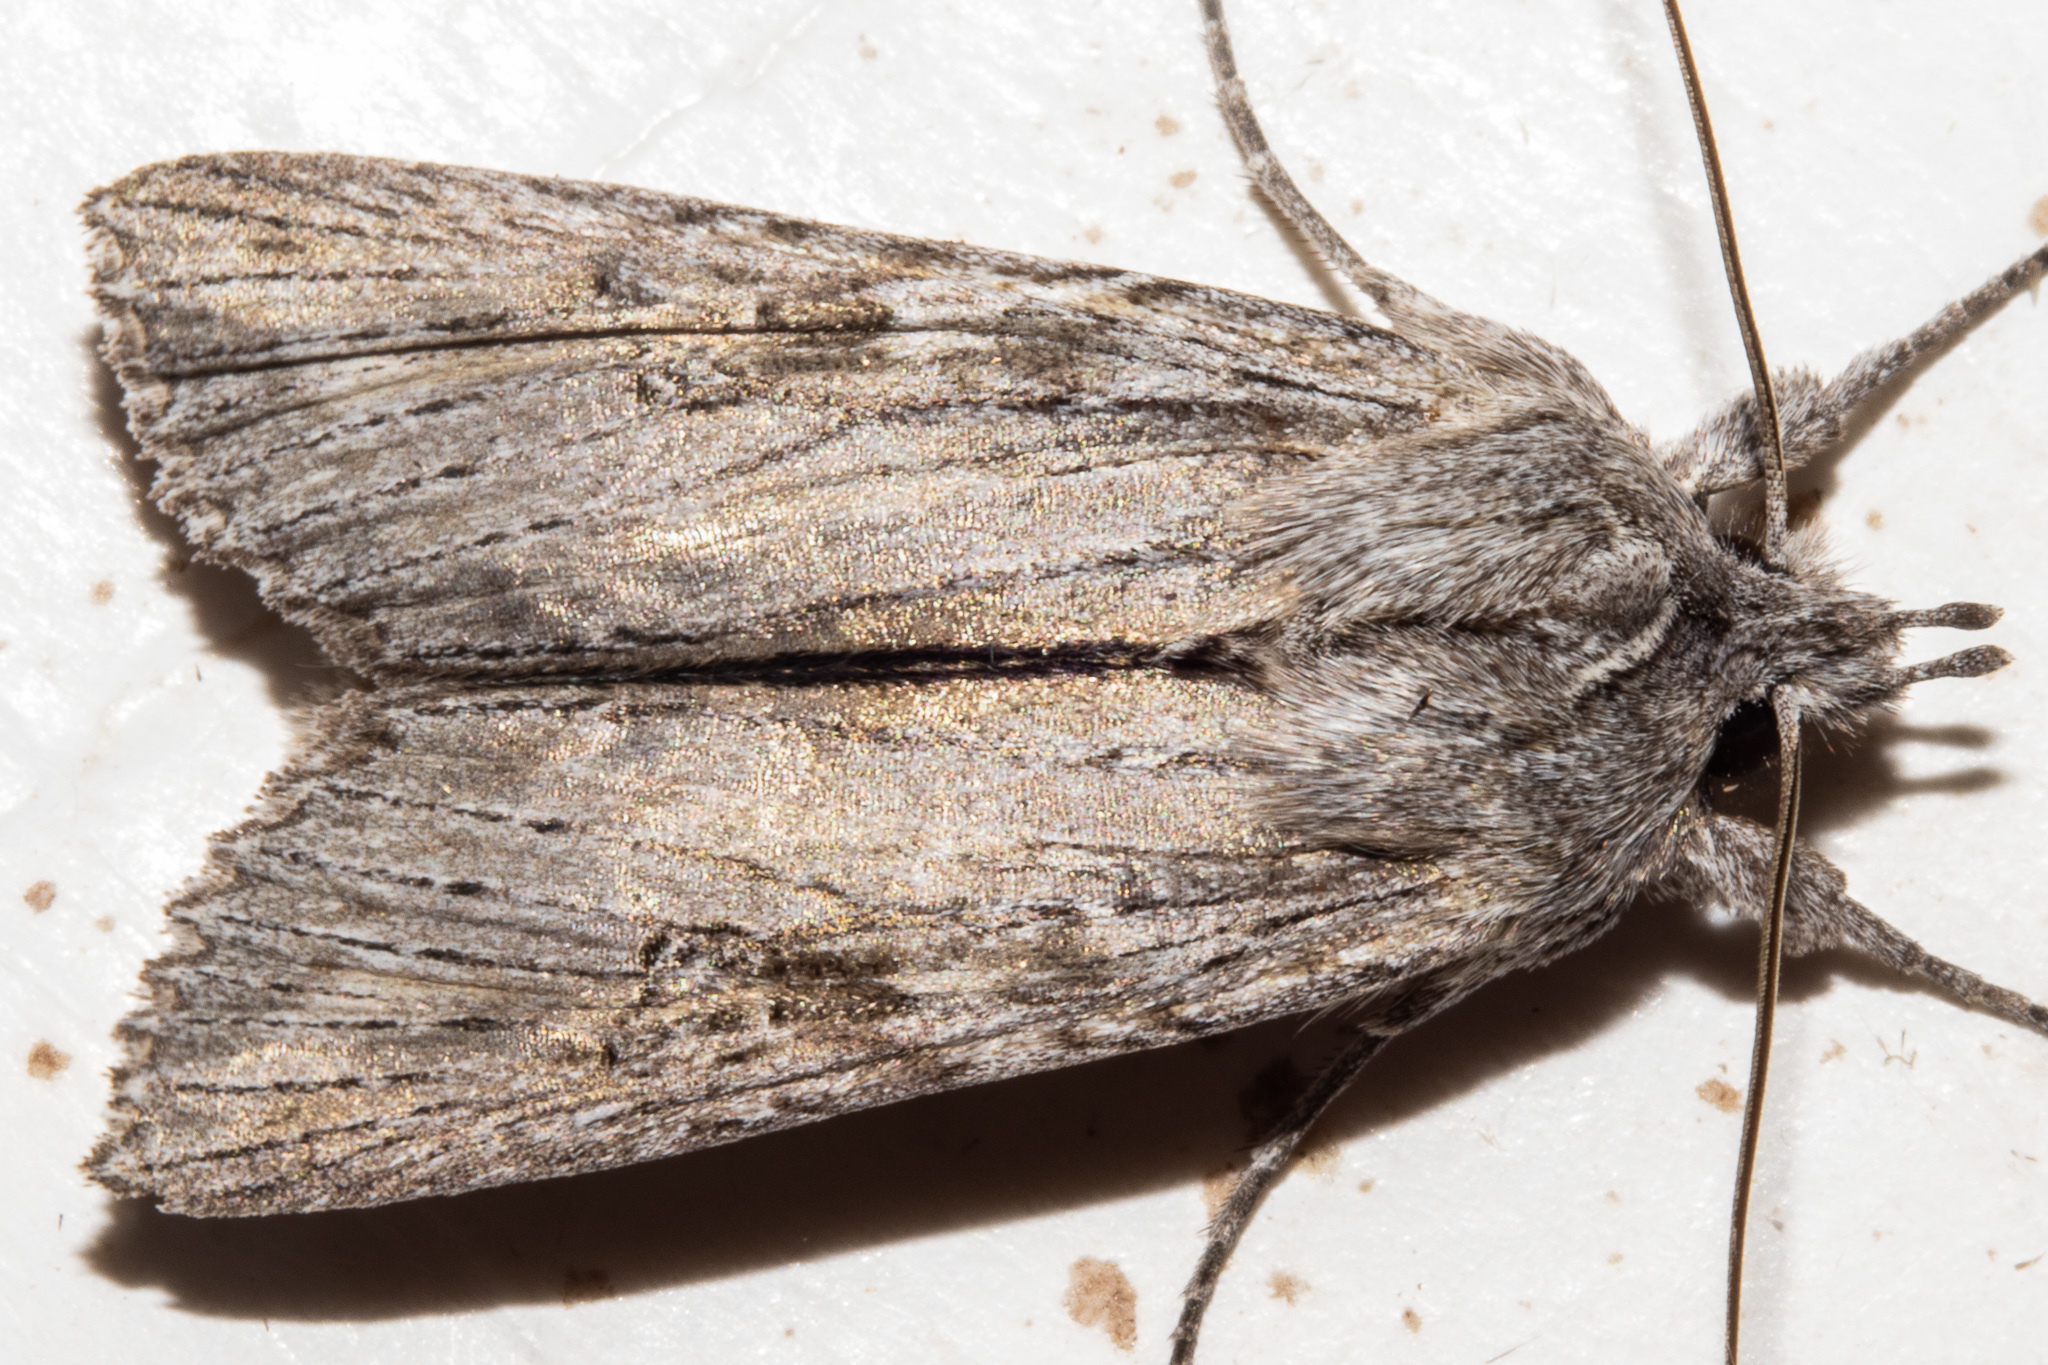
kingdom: Animalia
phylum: Arthropoda
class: Insecta
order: Lepidoptera
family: Noctuidae
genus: Physetica
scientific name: Physetica phricias
